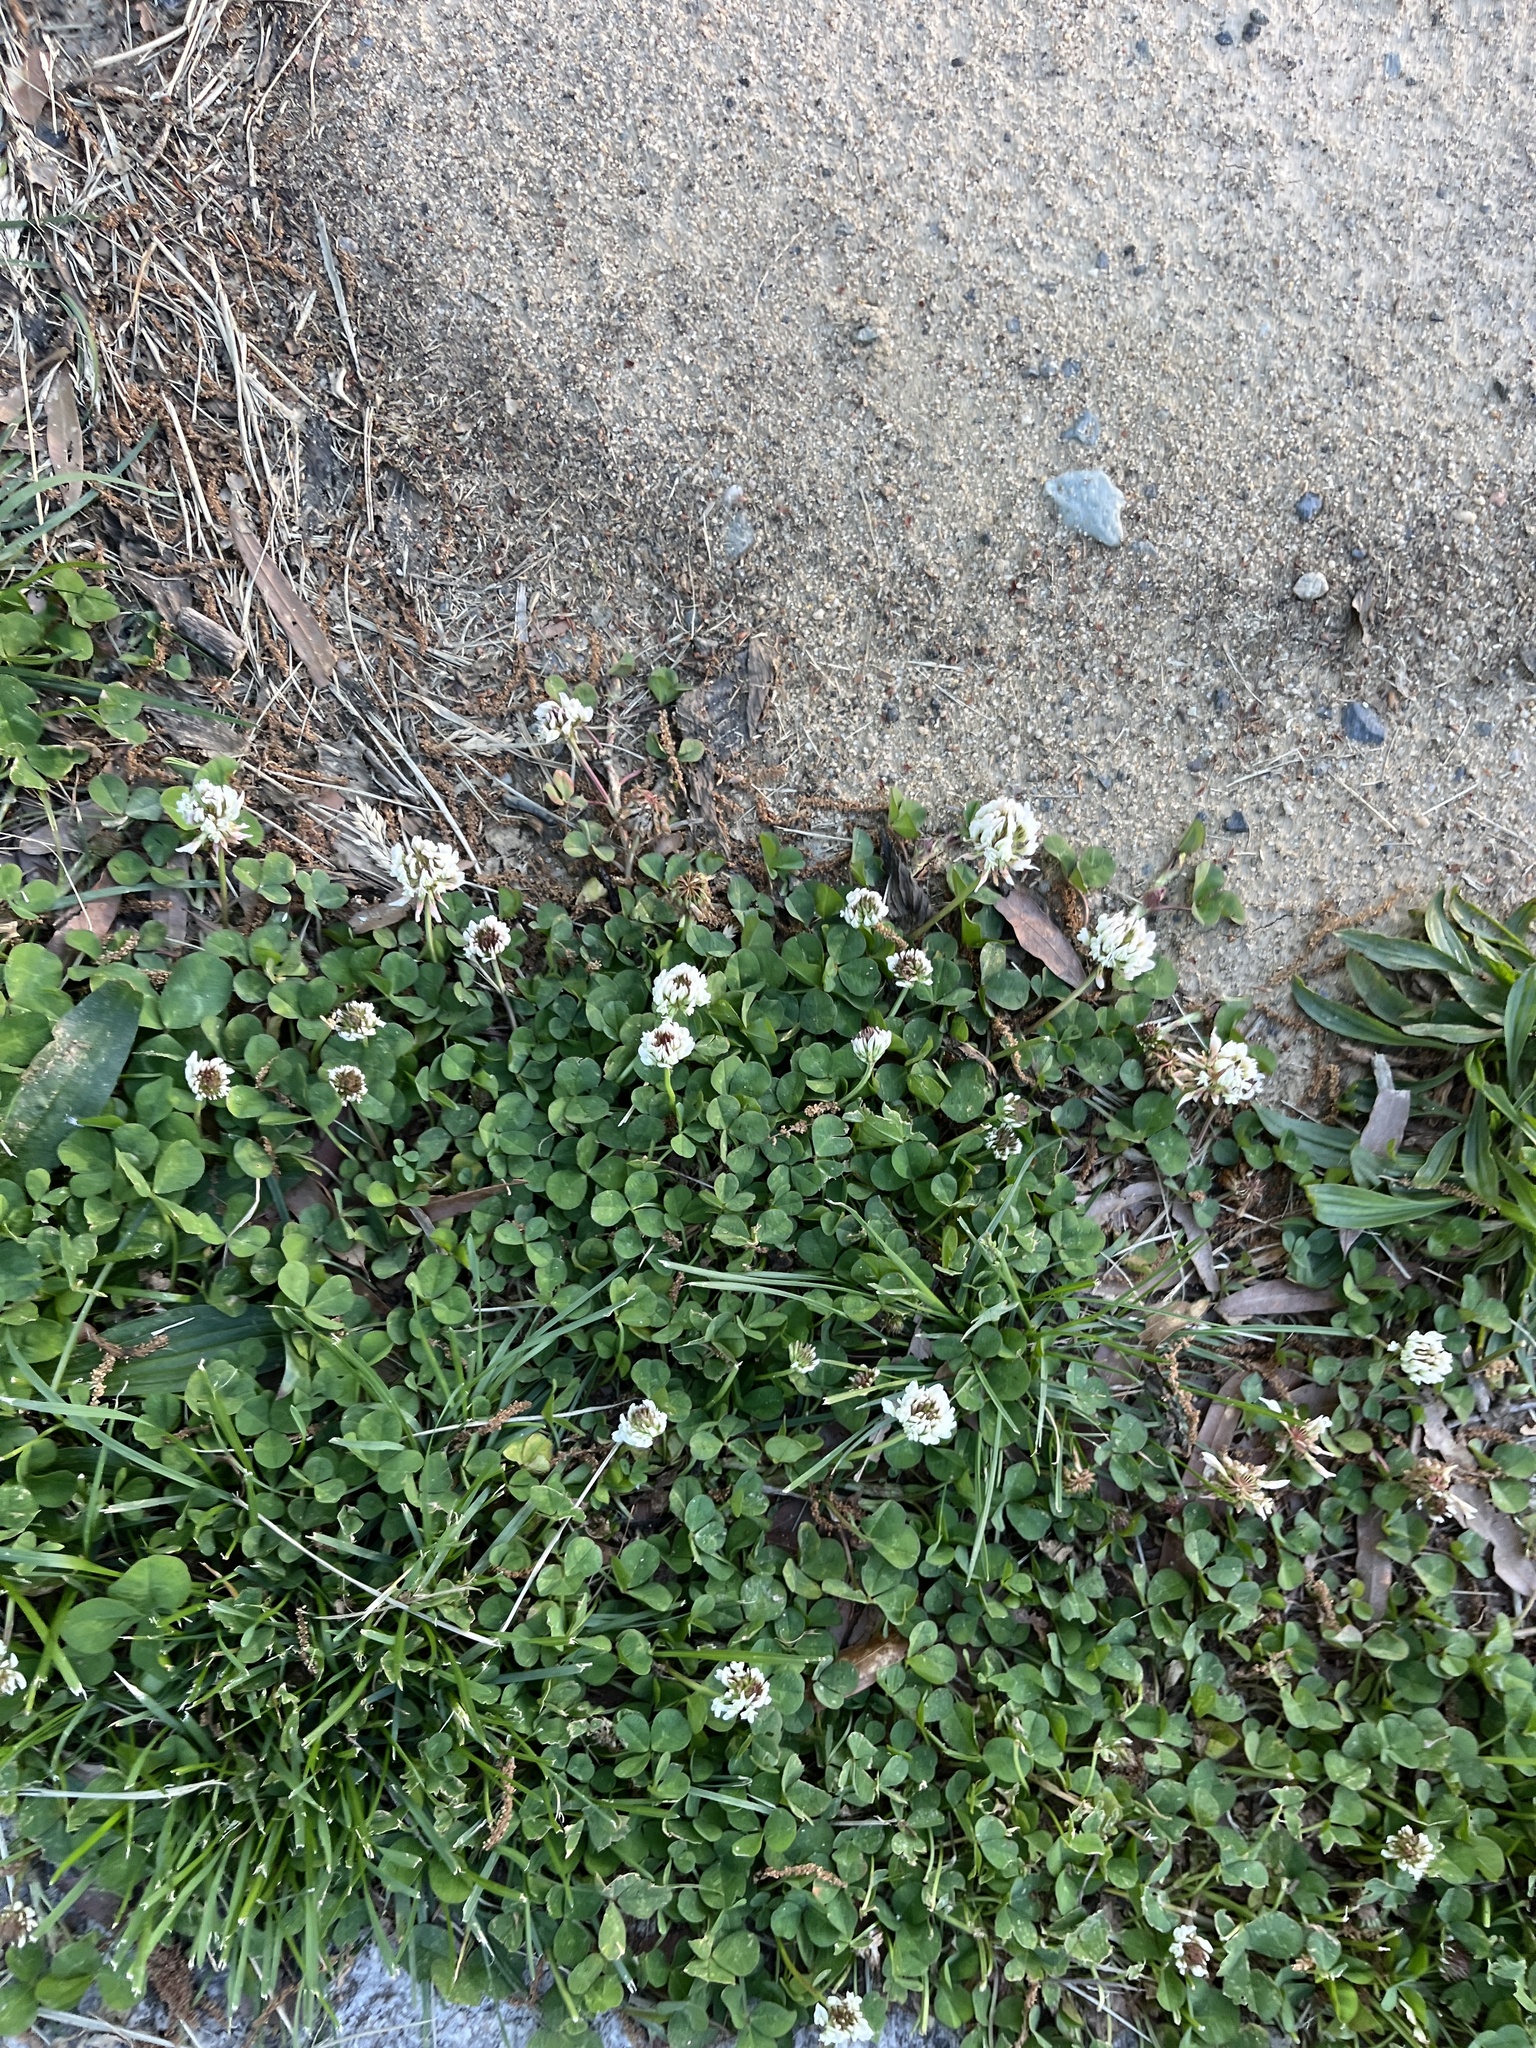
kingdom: Plantae
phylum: Tracheophyta
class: Magnoliopsida
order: Fabales
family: Fabaceae
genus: Trifolium
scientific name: Trifolium repens
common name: White clover
